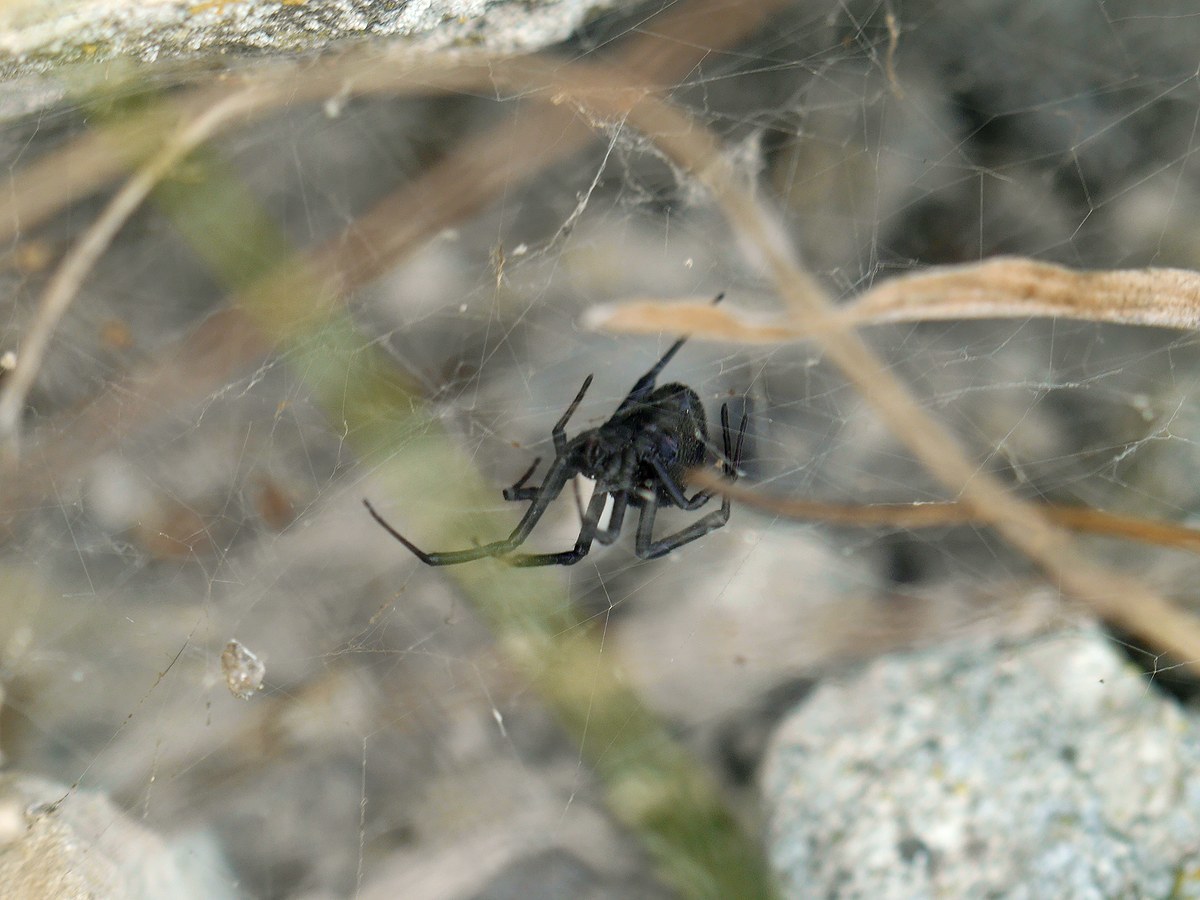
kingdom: Animalia
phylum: Arthropoda
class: Arachnida
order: Araneae
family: Theridiidae
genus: Latrodectus
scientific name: Latrodectus tredecimguttatus
